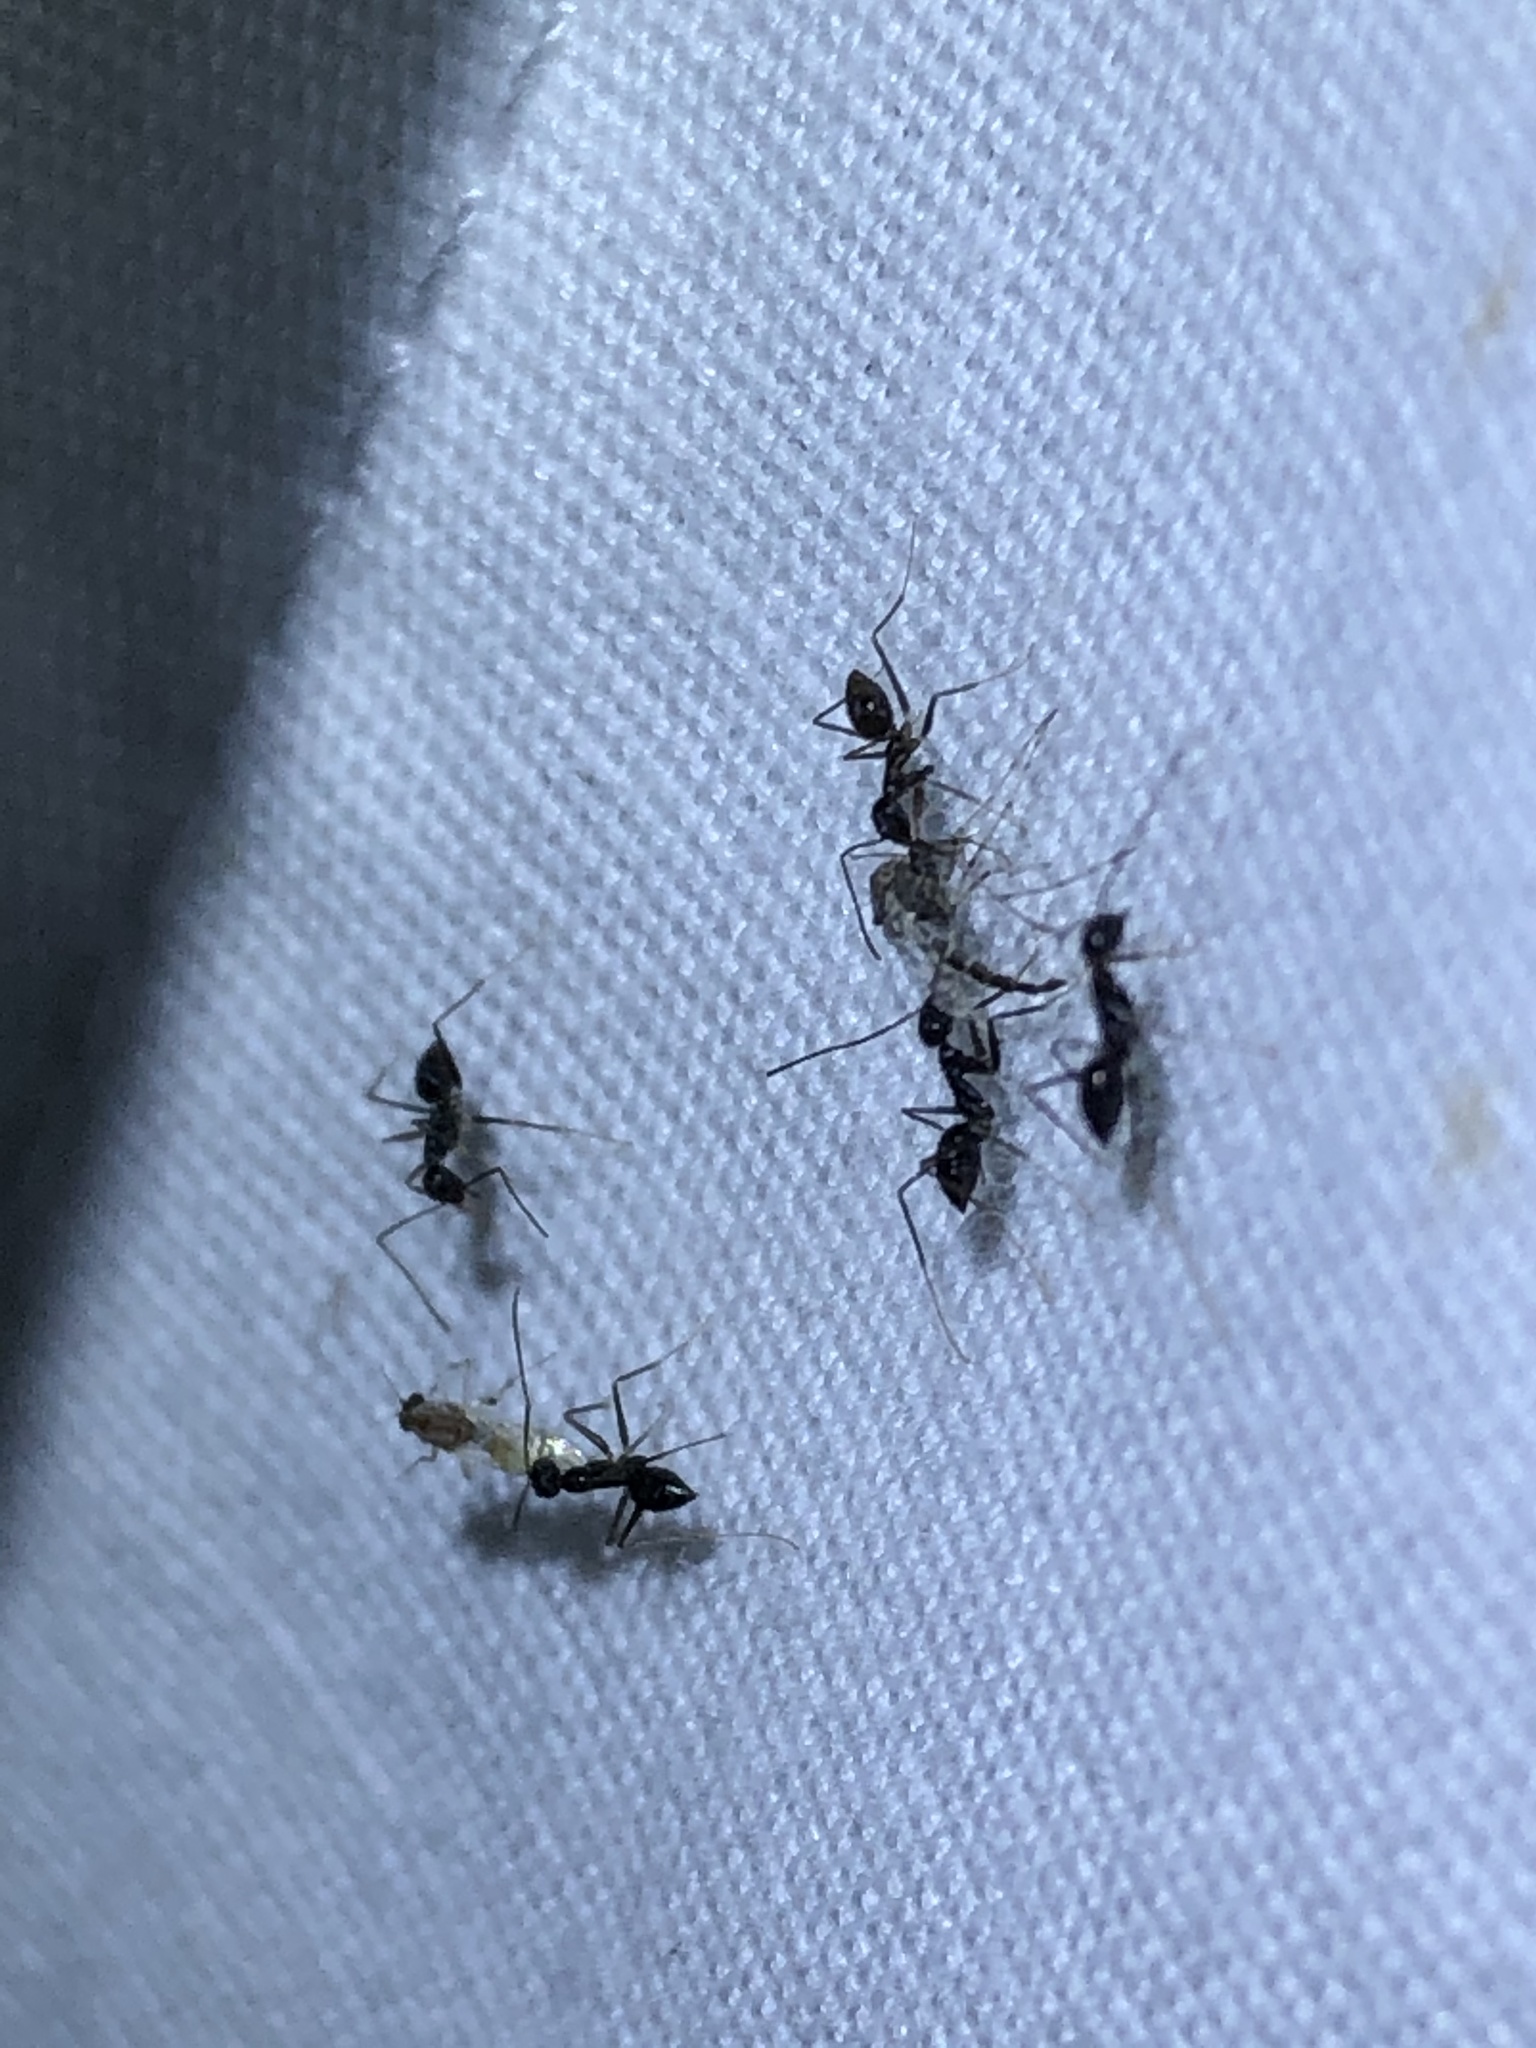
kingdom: Animalia
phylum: Arthropoda
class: Insecta
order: Hymenoptera
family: Formicidae
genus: Paratrechina
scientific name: Paratrechina longicornis
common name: Longhorned crazy ant
